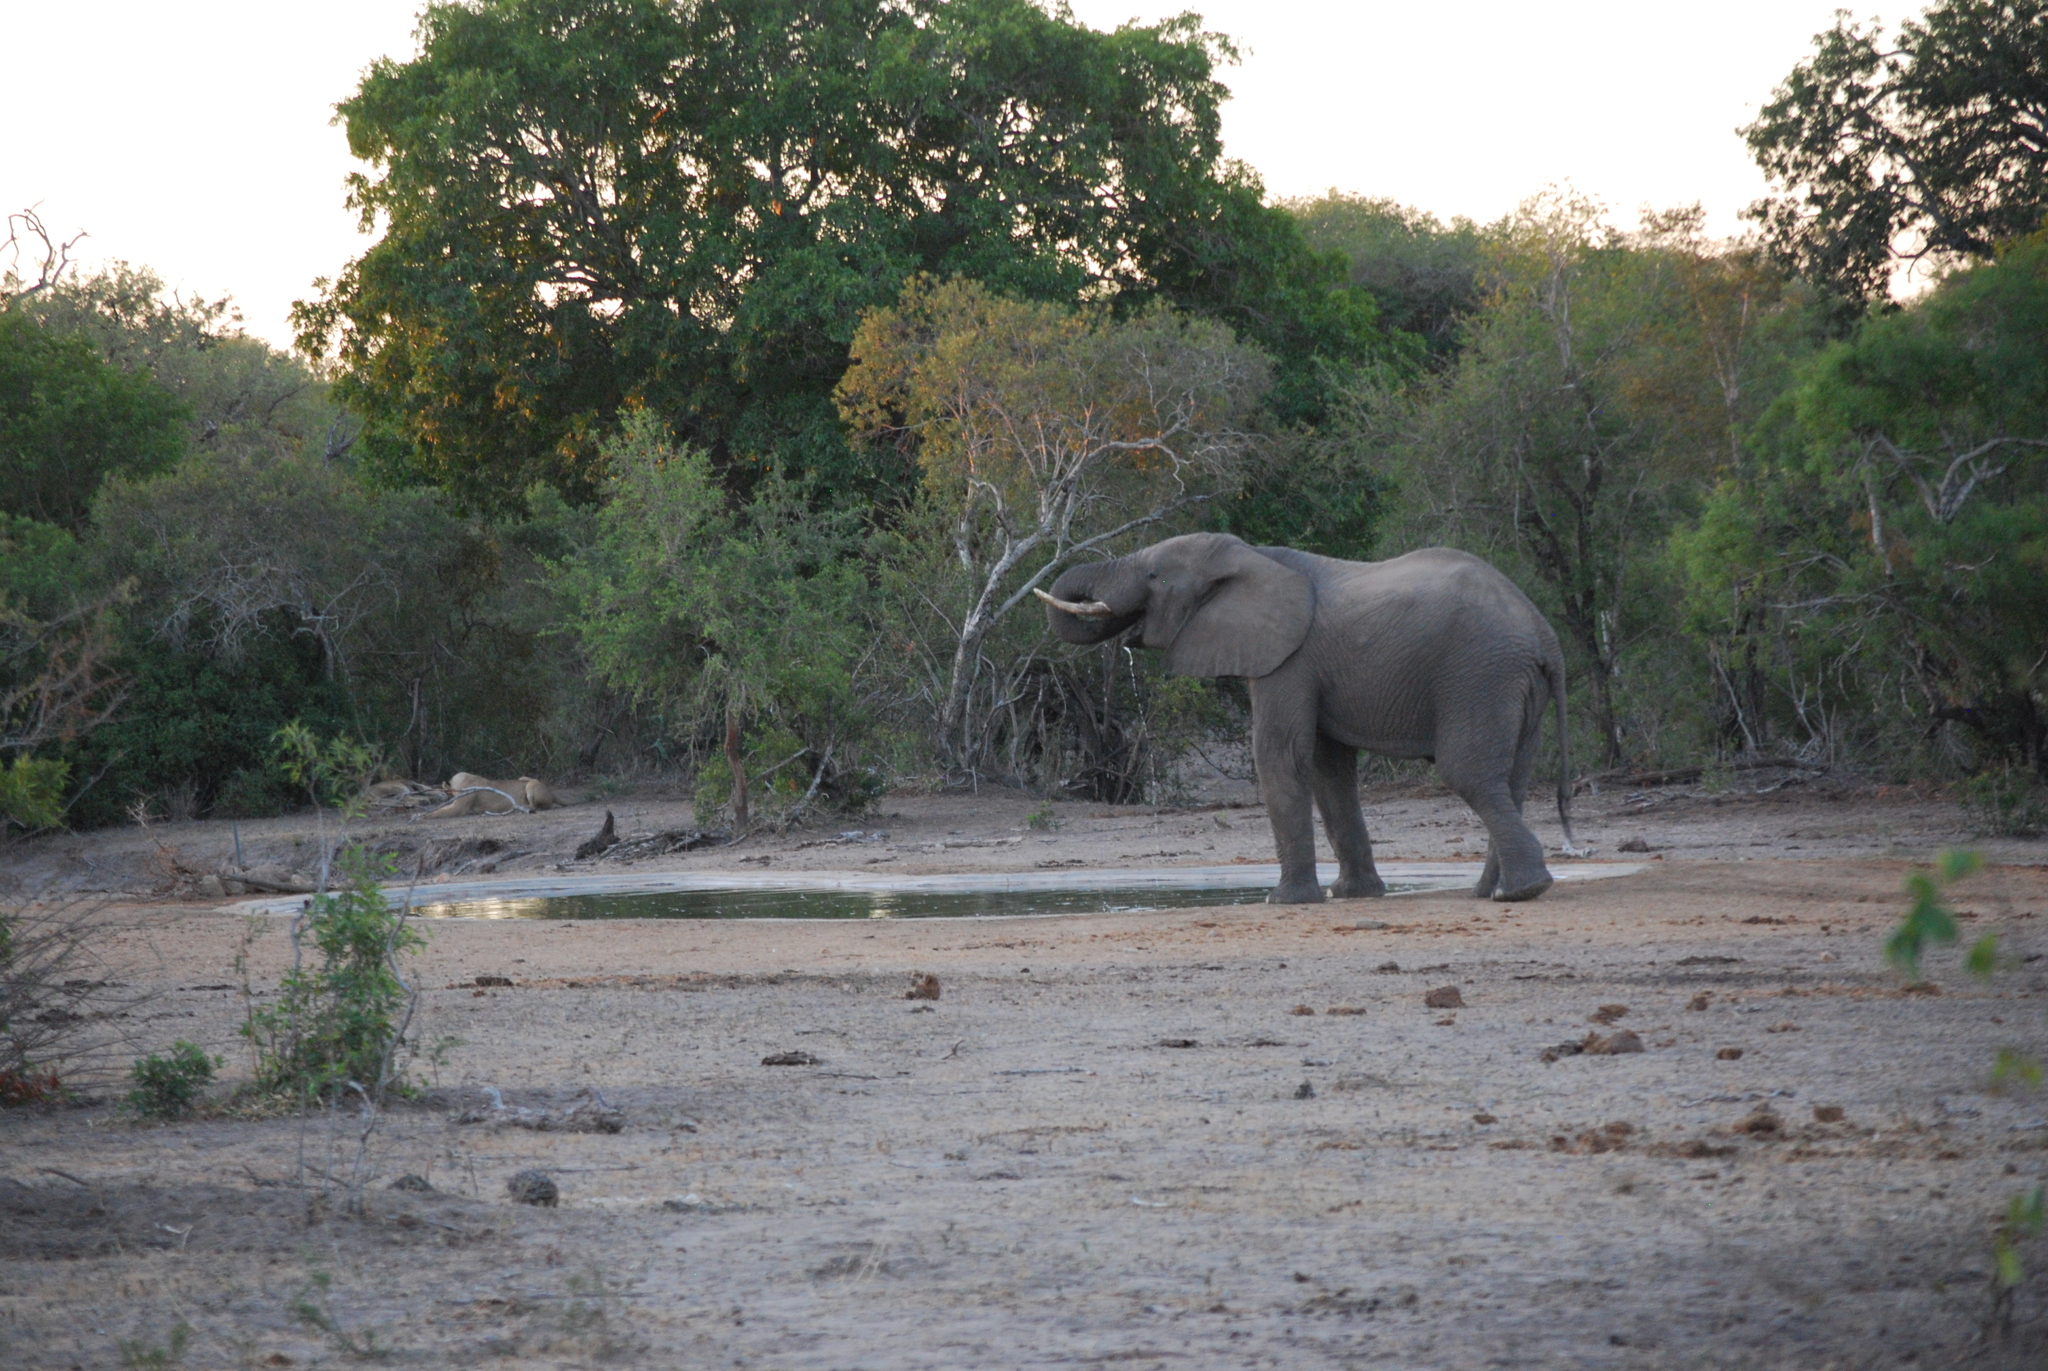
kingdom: Animalia
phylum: Chordata
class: Mammalia
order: Proboscidea
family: Elephantidae
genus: Loxodonta
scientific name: Loxodonta africana
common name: African elephant
